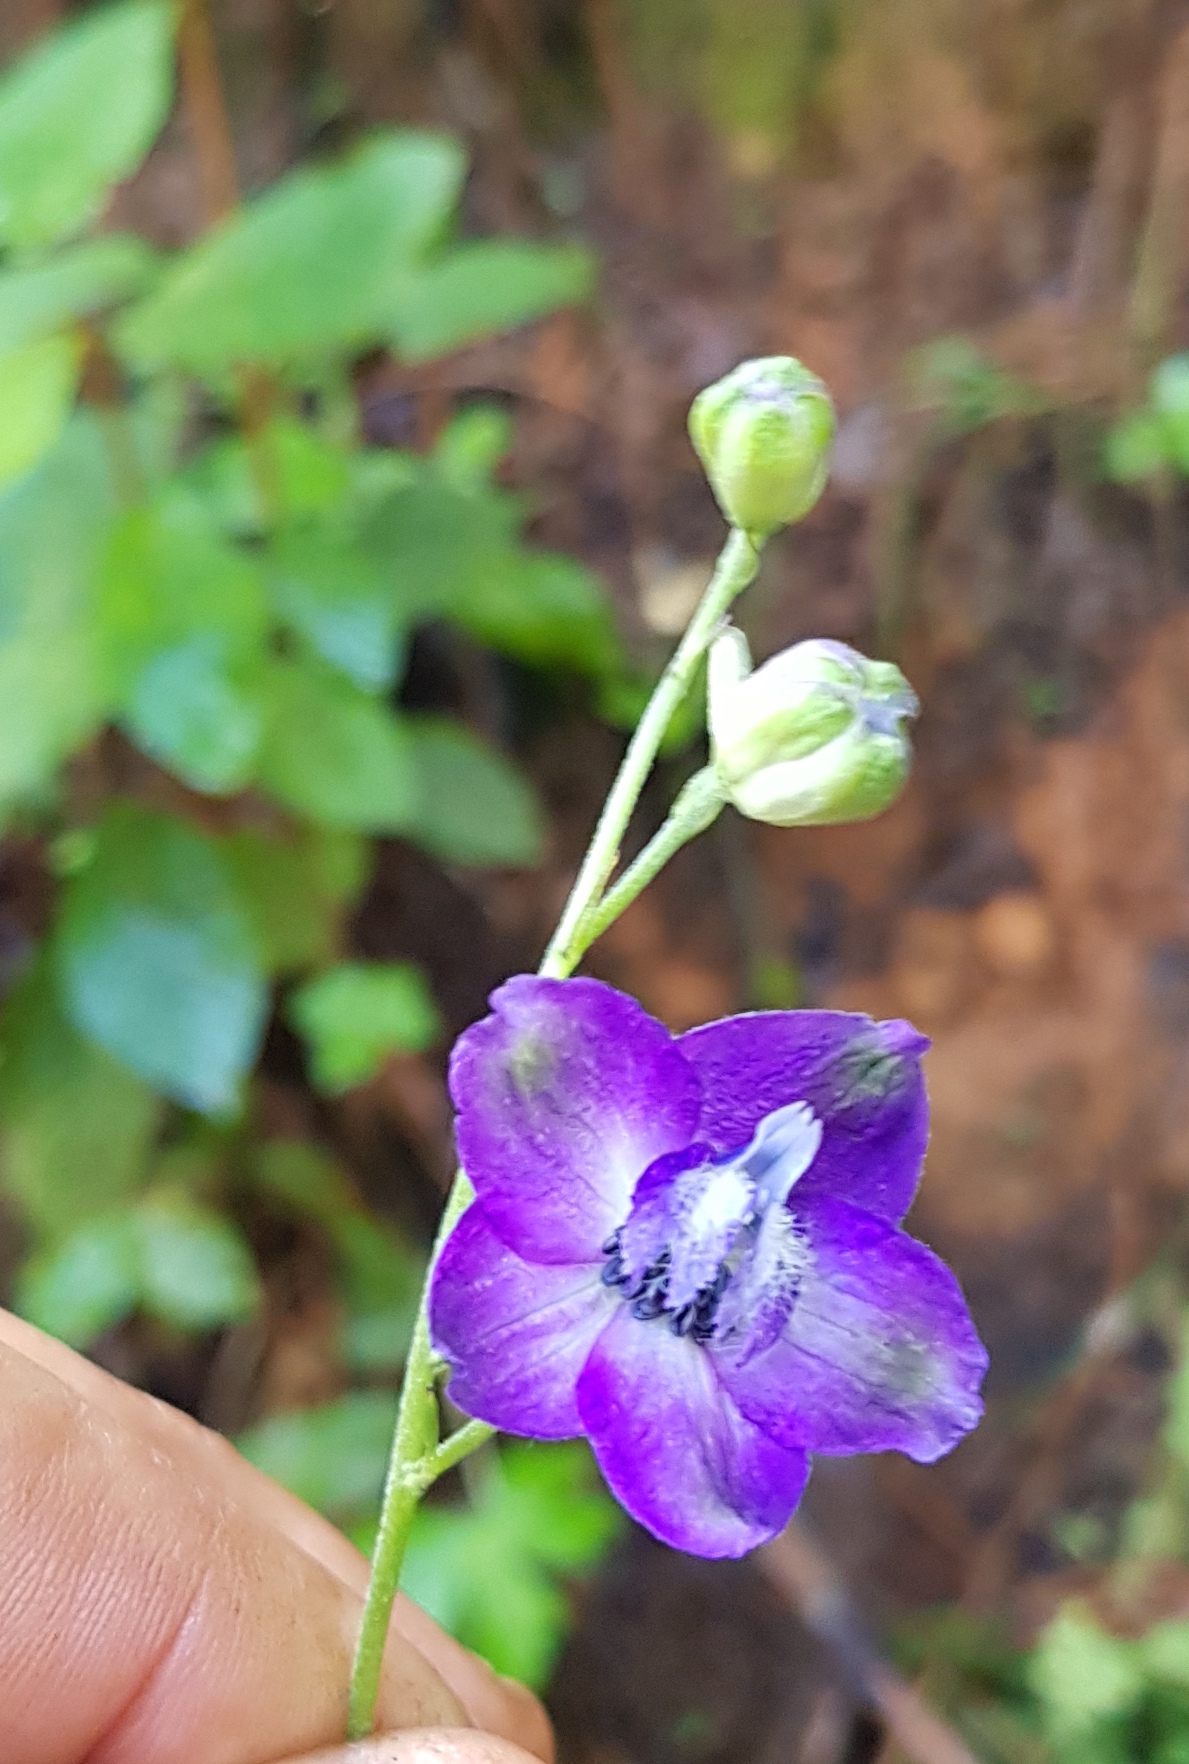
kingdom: Plantae
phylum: Tracheophyta
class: Magnoliopsida
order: Ranunculales
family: Ranunculaceae
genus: Delphinium
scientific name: Delphinium pedatisectum
